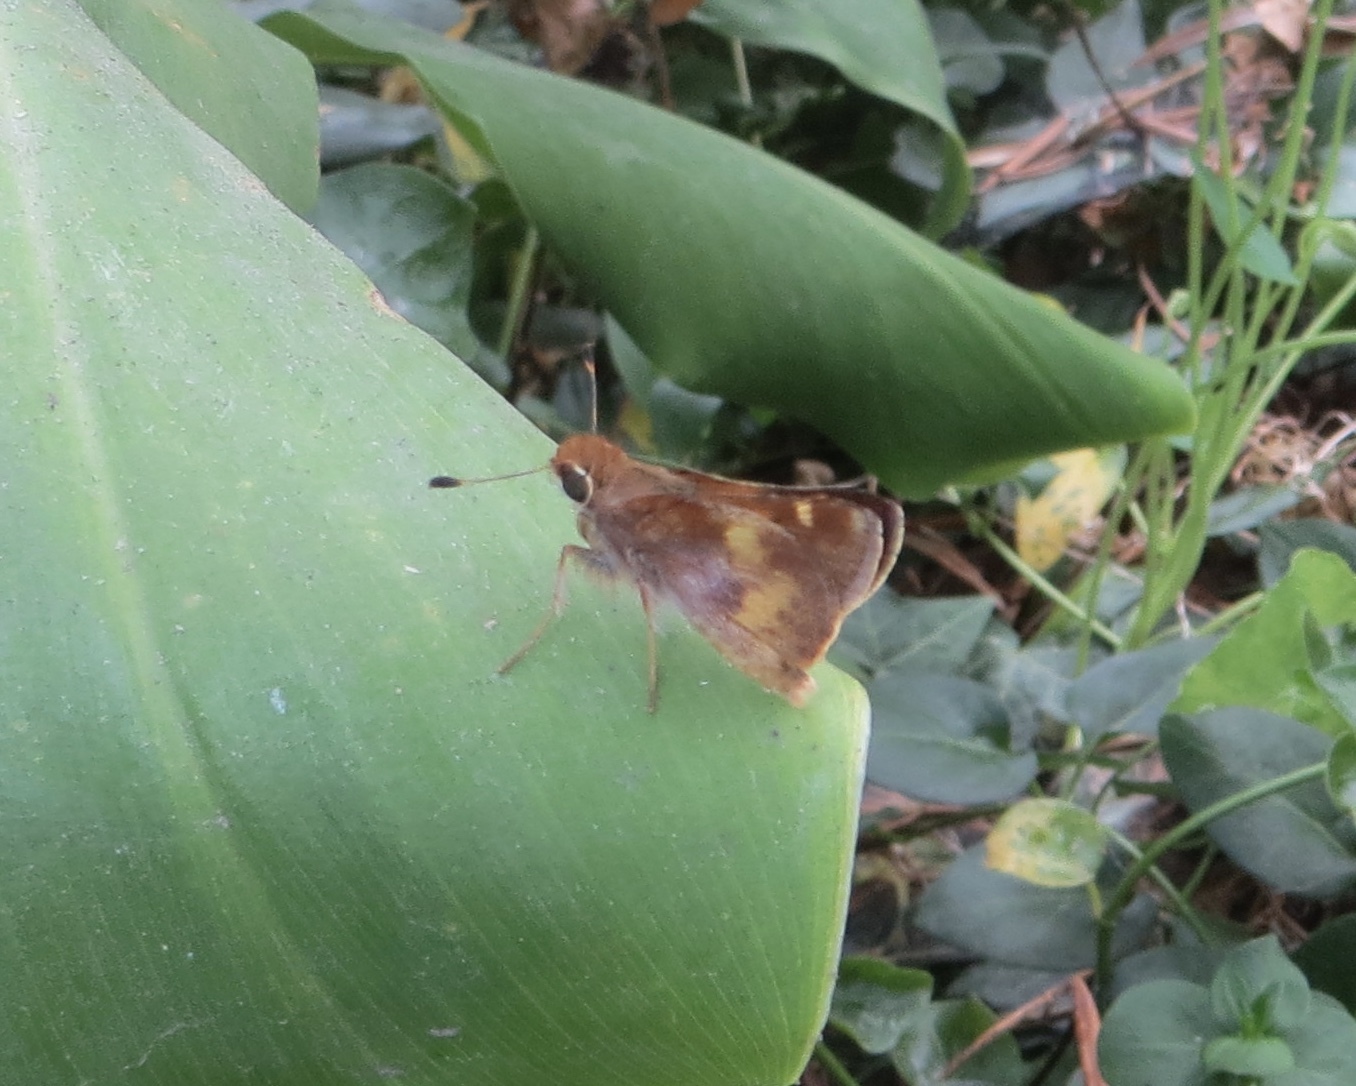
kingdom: Animalia
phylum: Arthropoda
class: Insecta
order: Lepidoptera
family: Hesperiidae
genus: Lon
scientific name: Lon melane
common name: Umber skipper
